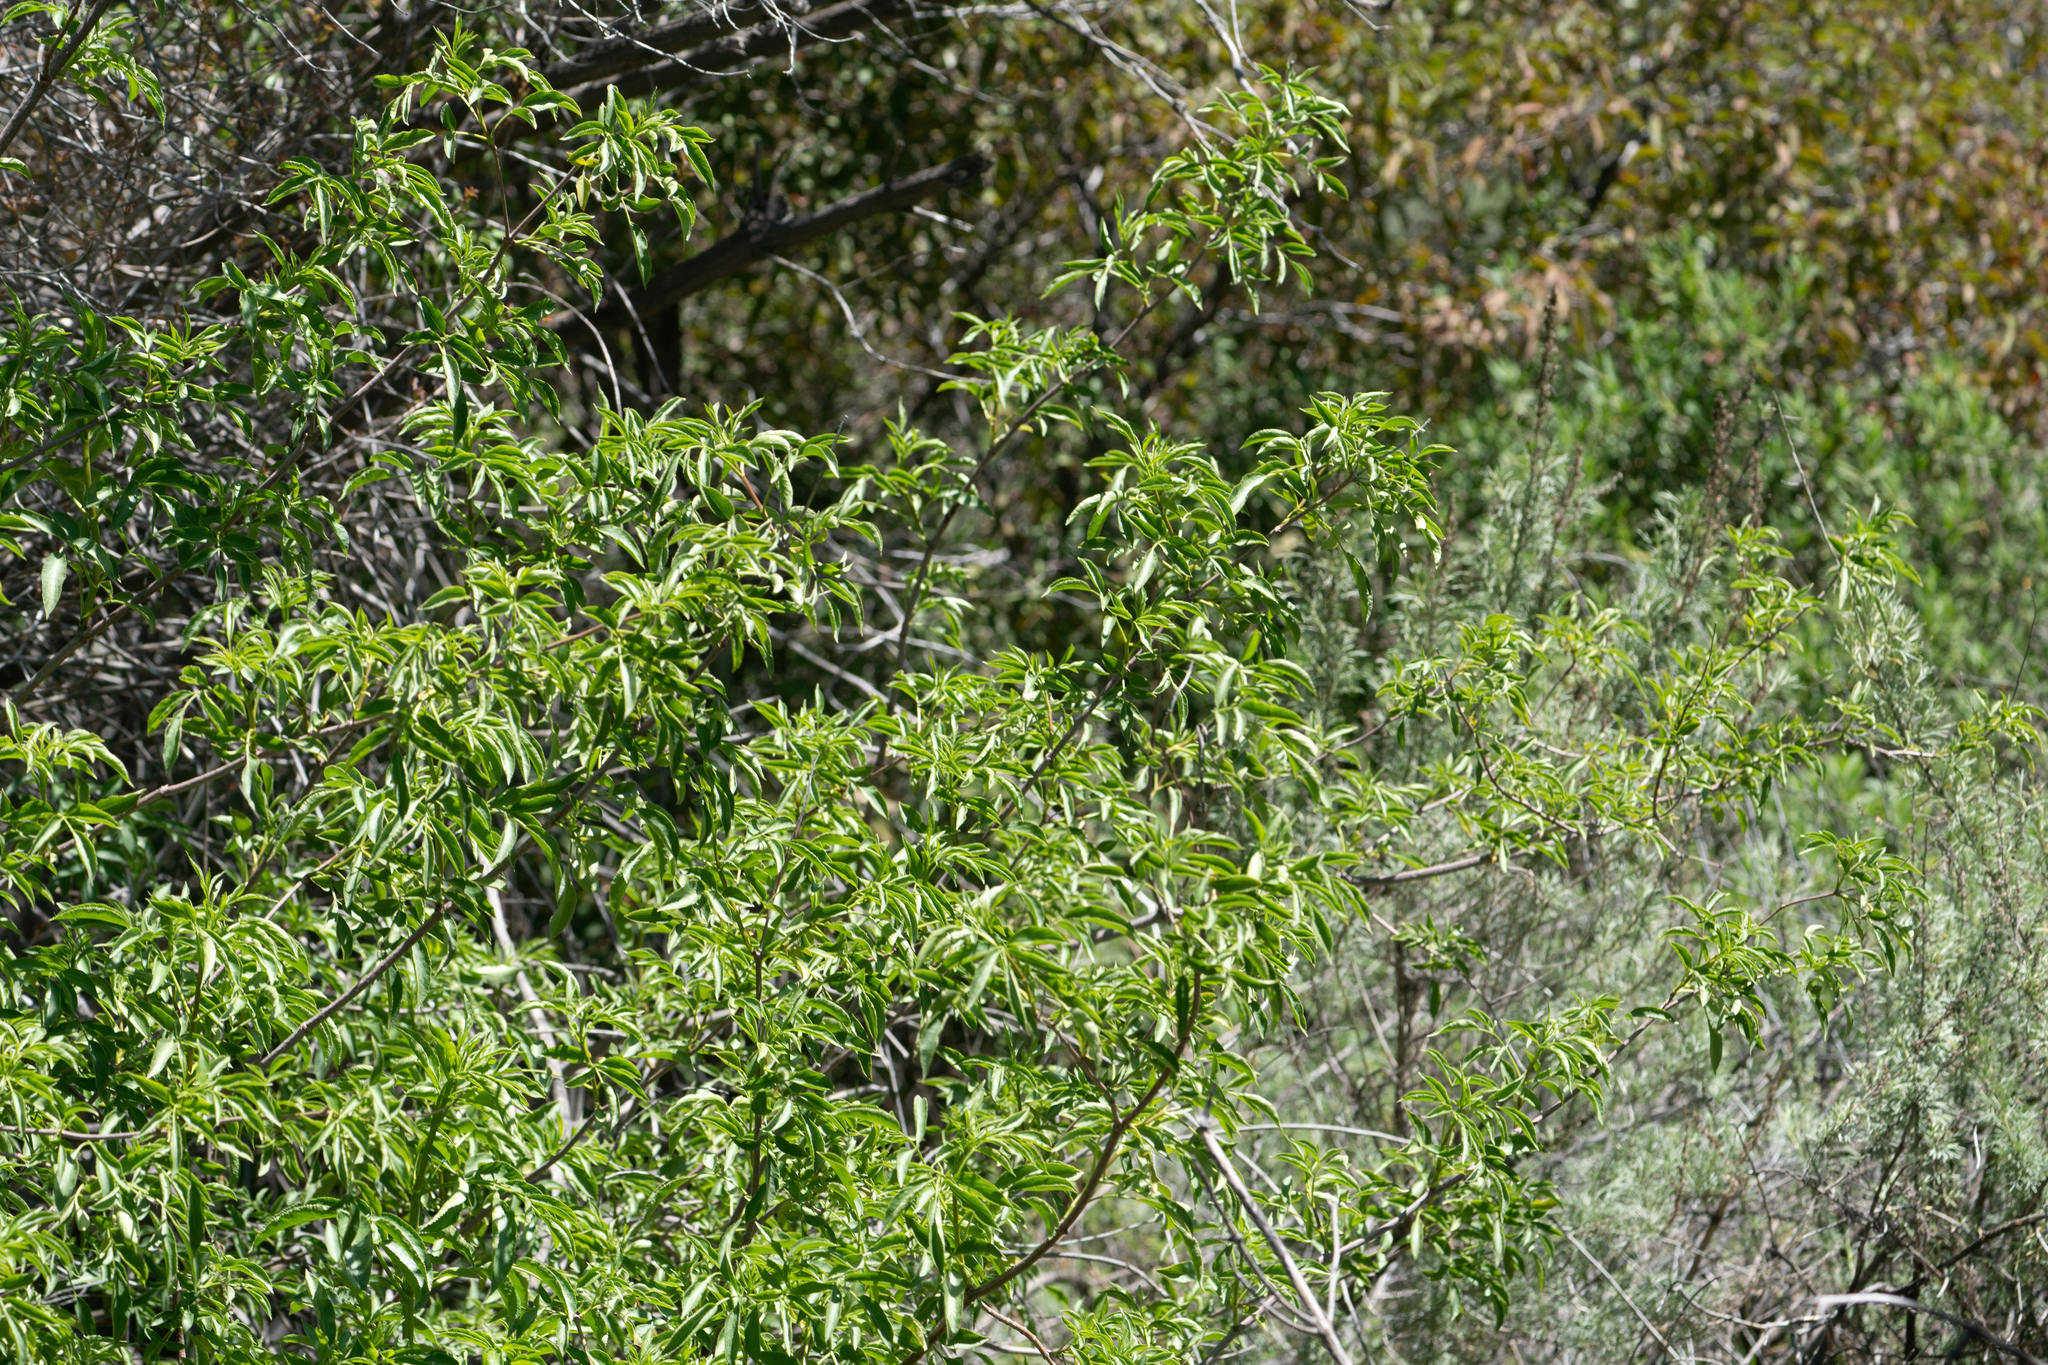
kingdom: Plantae
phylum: Tracheophyta
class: Magnoliopsida
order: Dipsacales
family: Viburnaceae
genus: Sambucus
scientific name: Sambucus cerulea
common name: Blue elder
